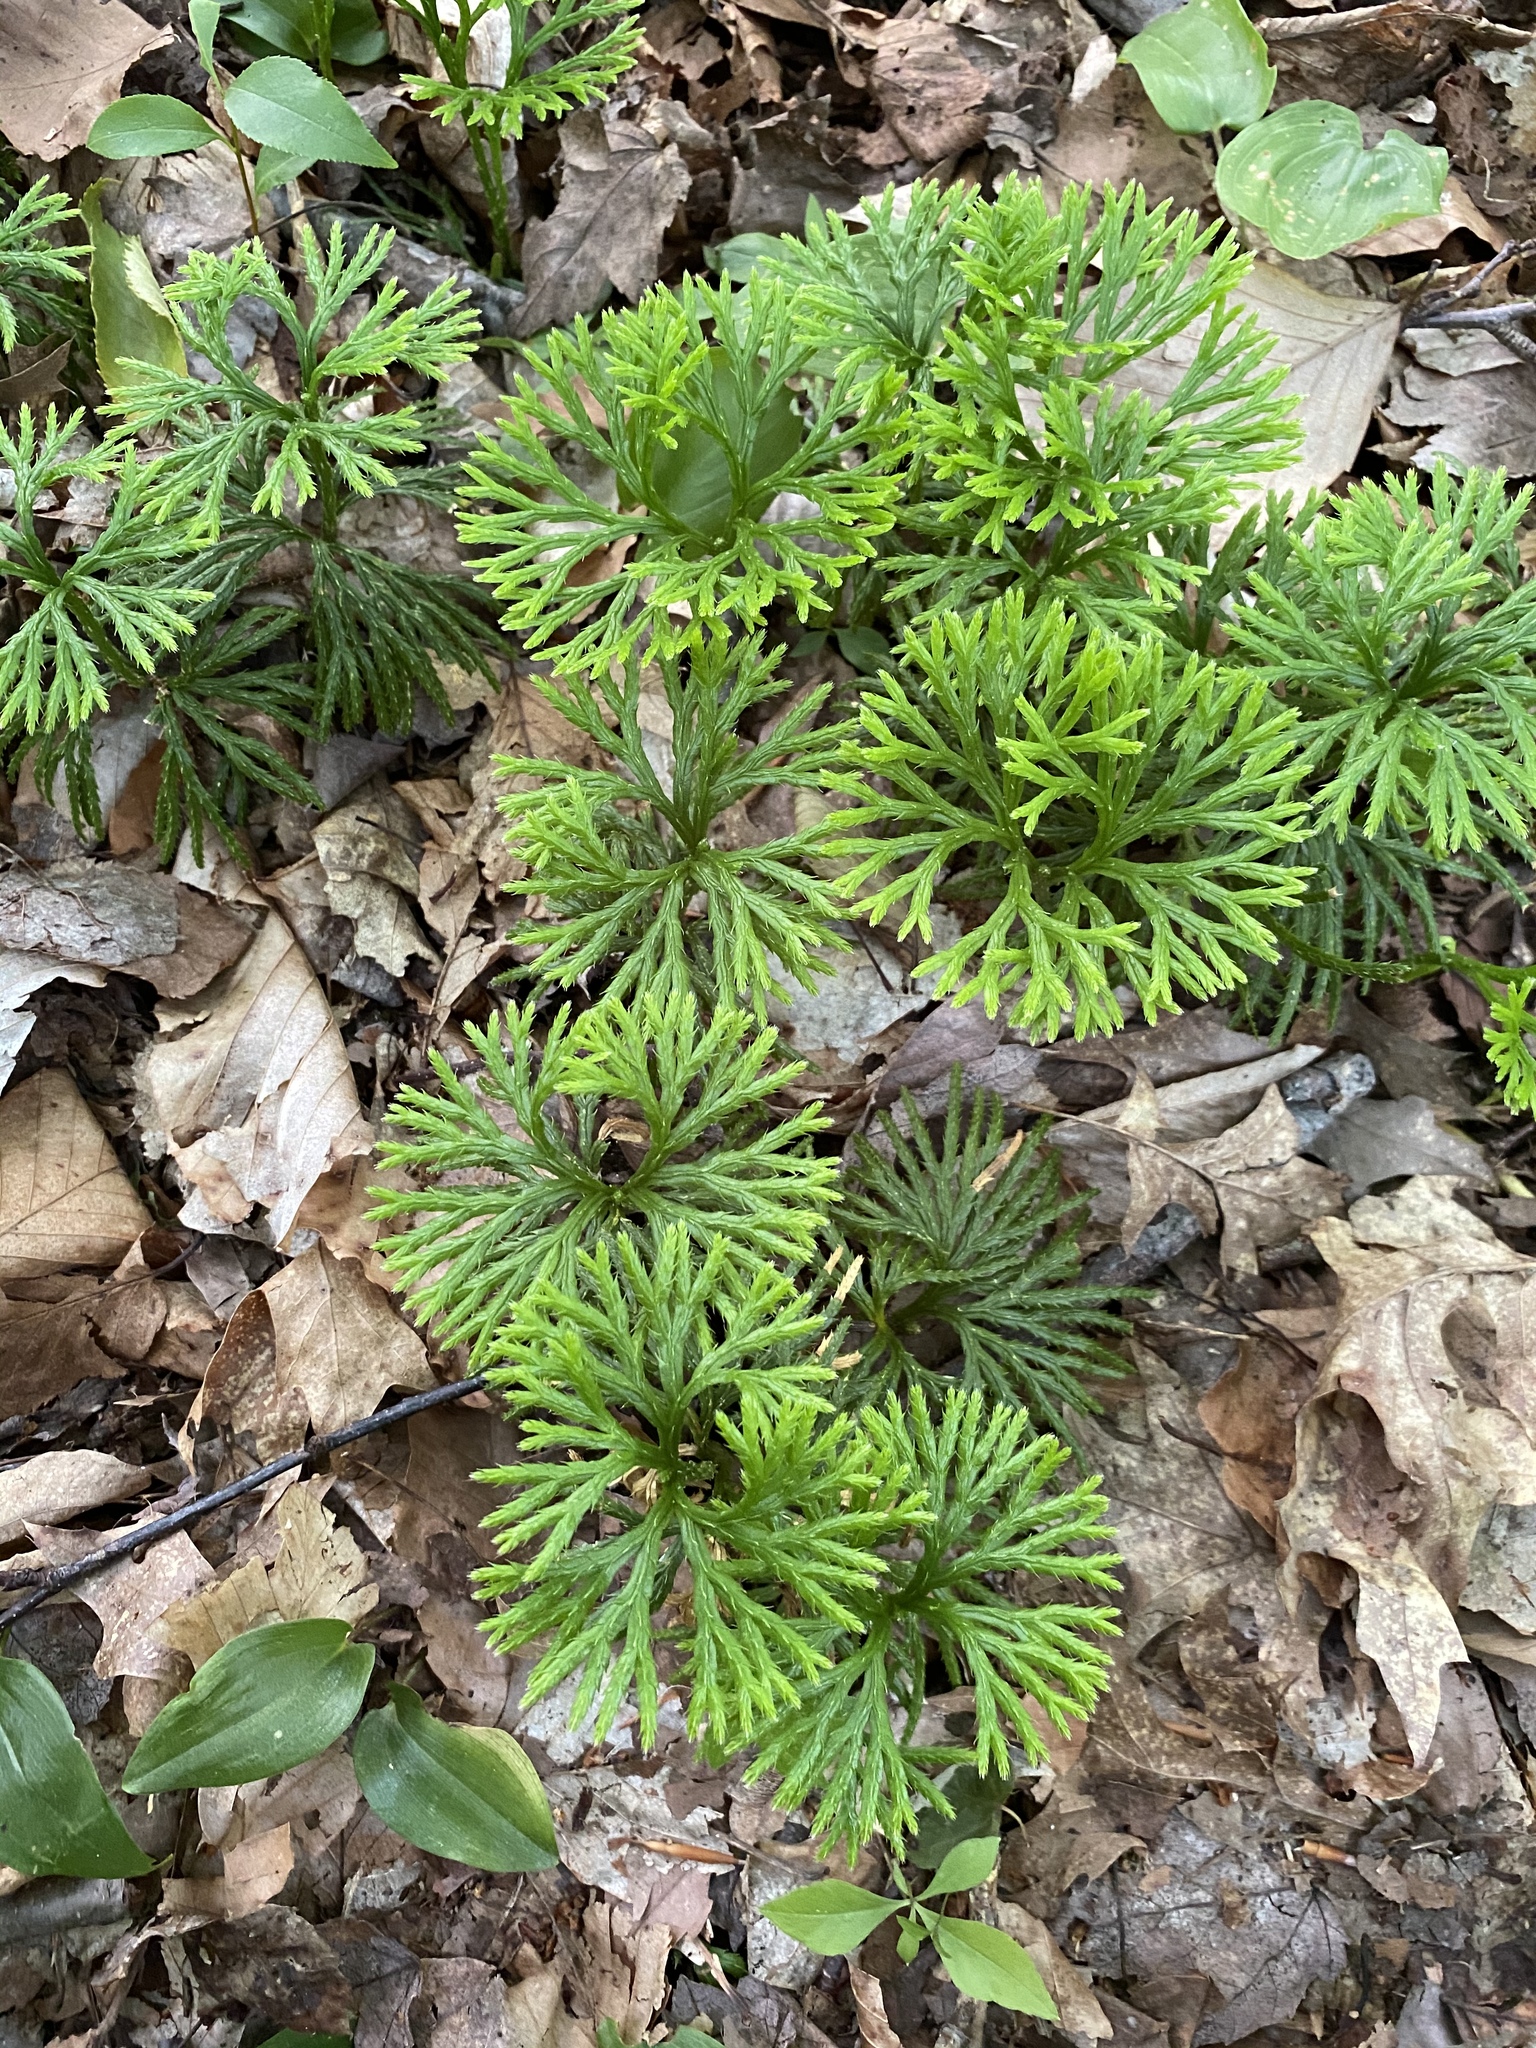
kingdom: Plantae
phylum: Tracheophyta
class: Lycopodiopsida
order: Lycopodiales
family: Lycopodiaceae
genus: Diphasiastrum
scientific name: Diphasiastrum digitatum
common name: Southern running-pine
